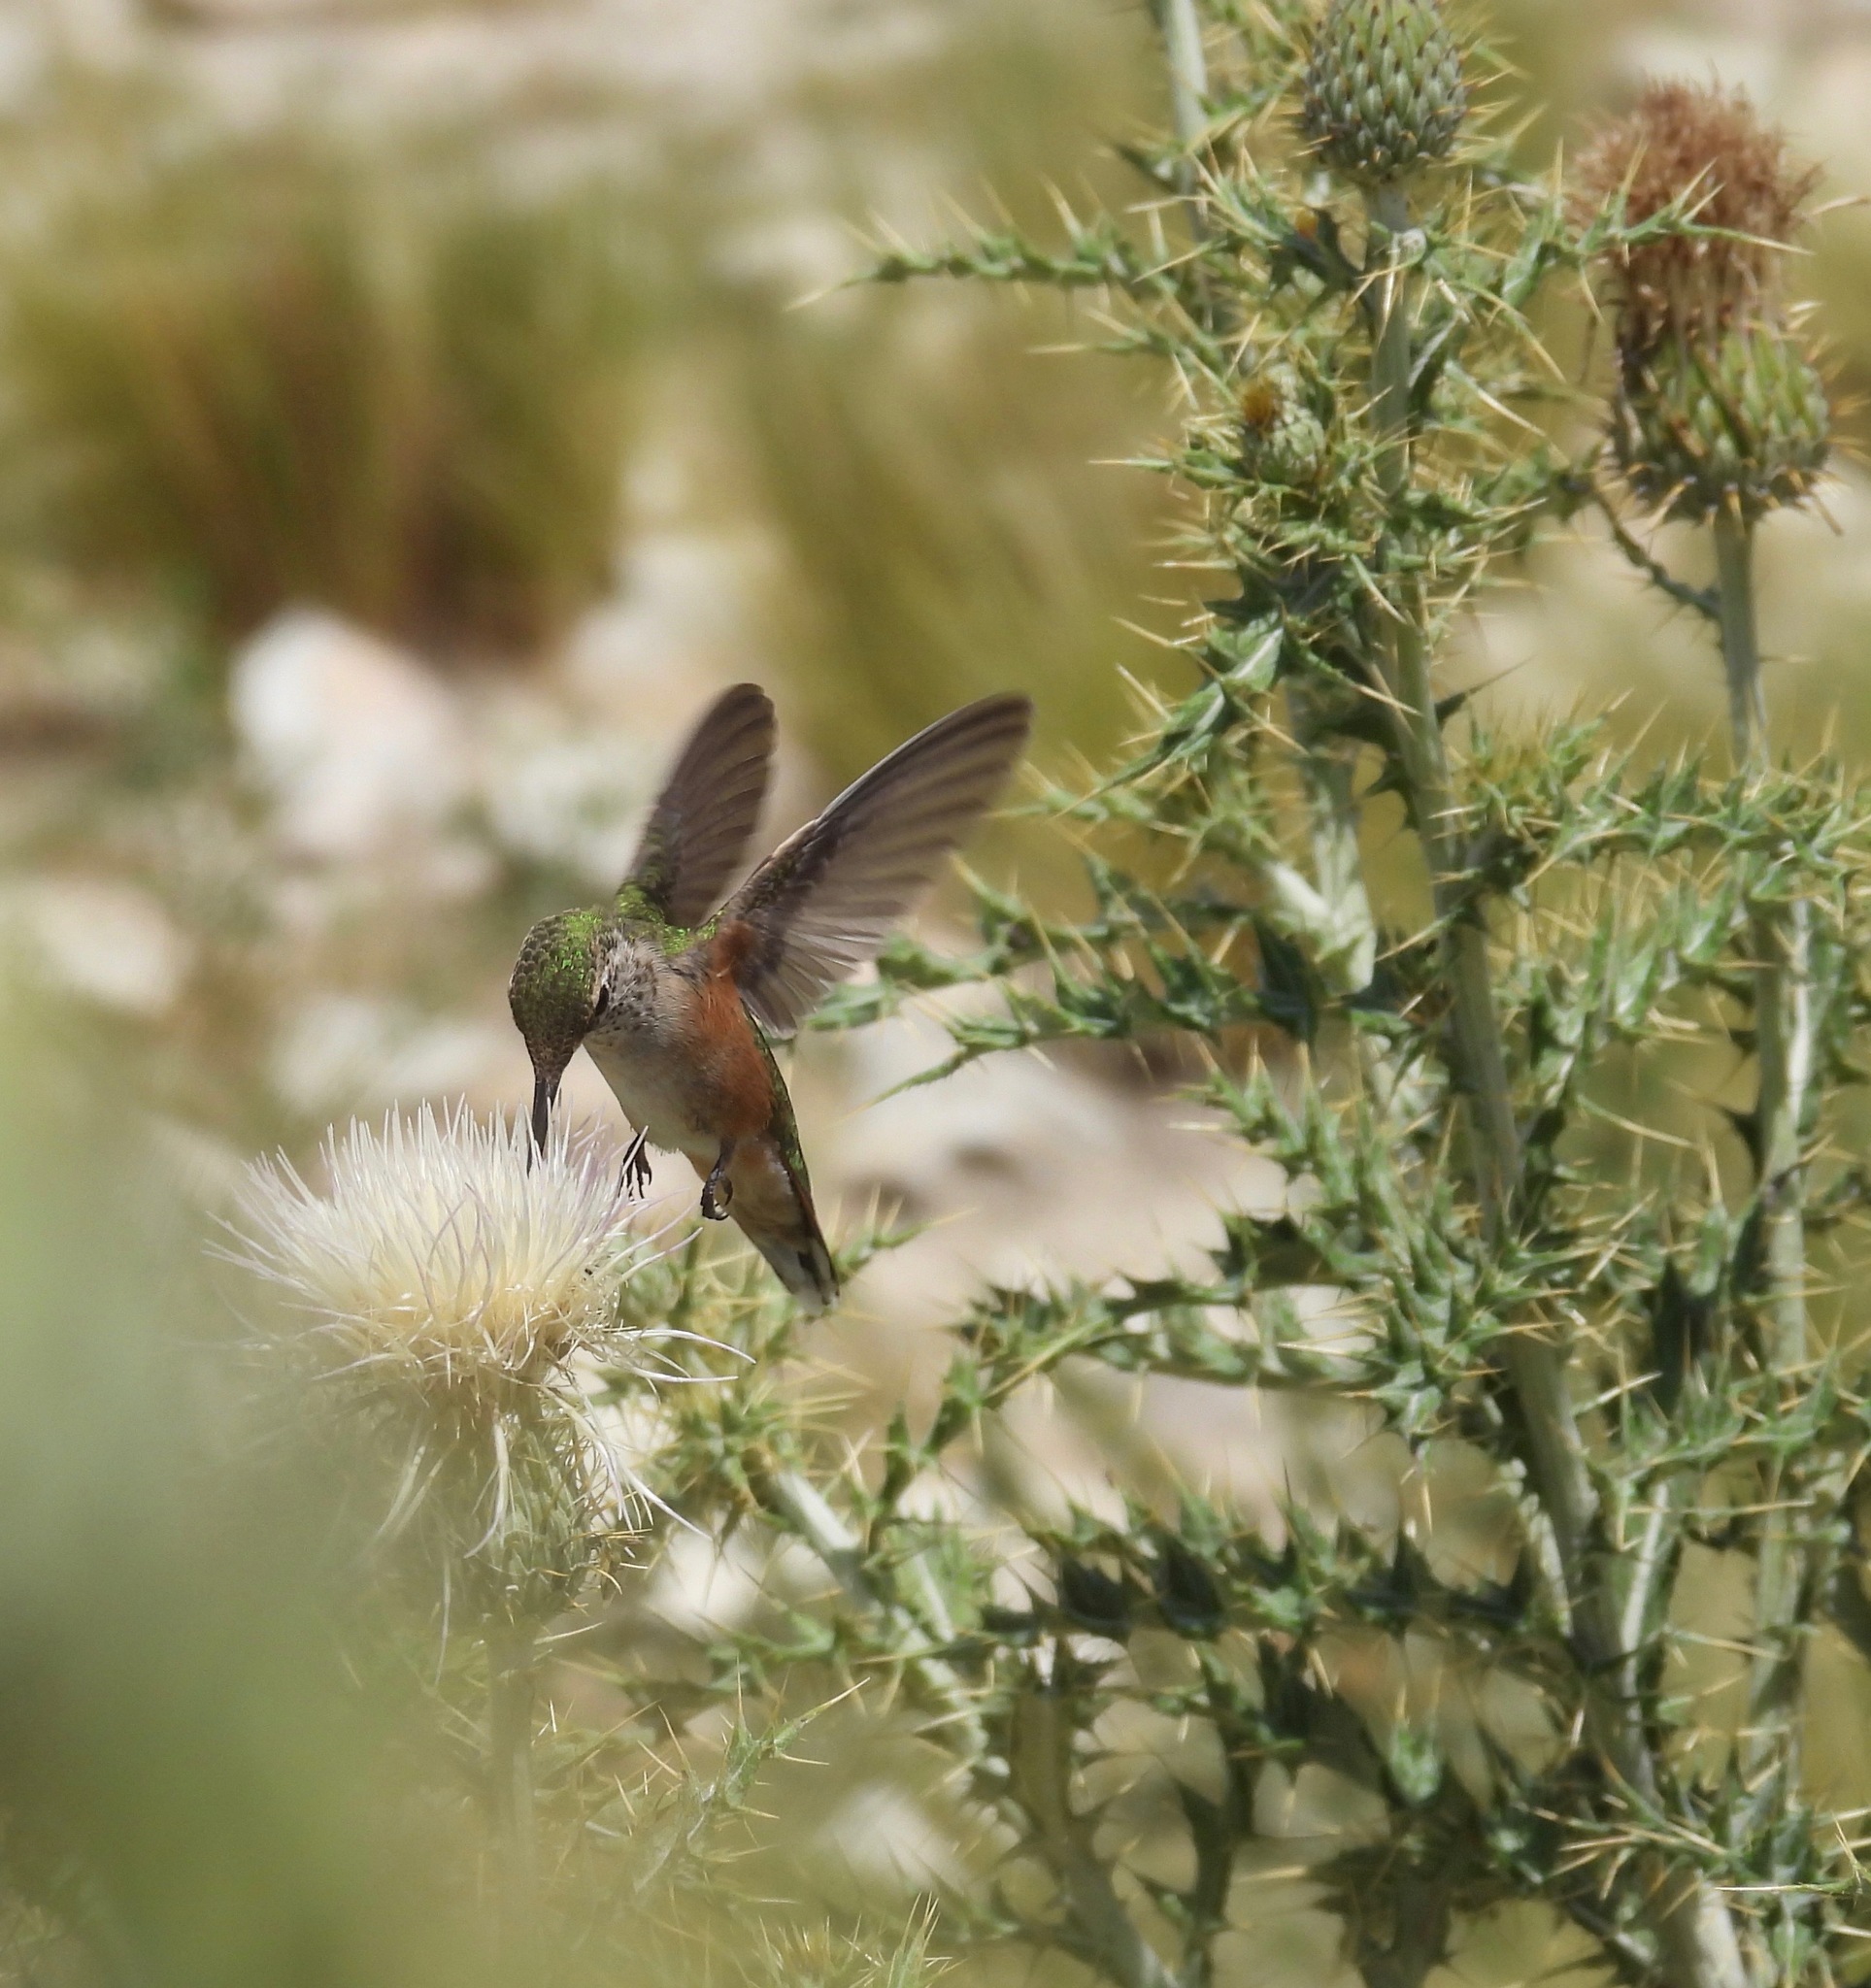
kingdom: Animalia
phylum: Chordata
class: Aves
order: Apodiformes
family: Trochilidae
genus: Selasphorus
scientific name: Selasphorus platycercus
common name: Broad-tailed hummingbird
